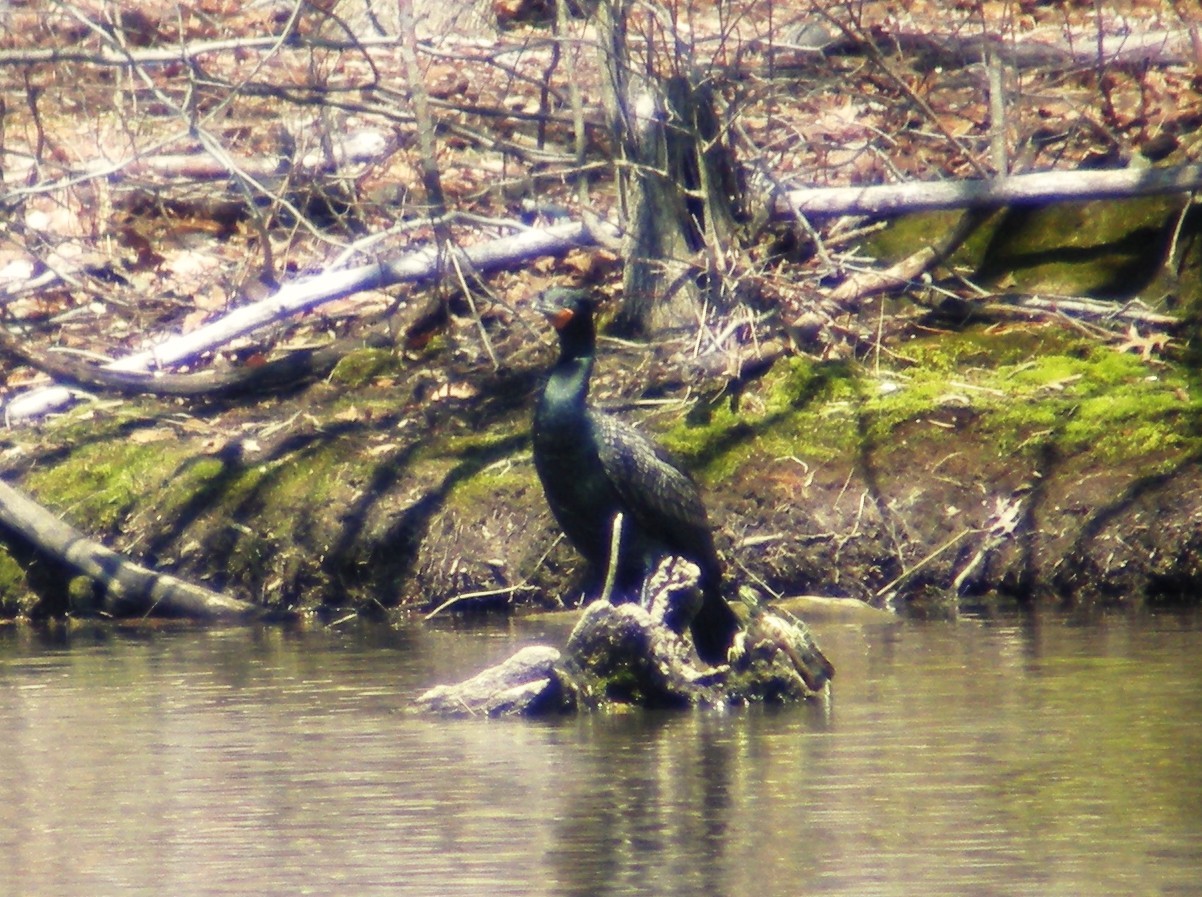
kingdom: Animalia
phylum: Chordata
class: Aves
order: Suliformes
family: Phalacrocoracidae
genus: Phalacrocorax
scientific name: Phalacrocorax auritus
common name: Double-crested cormorant
